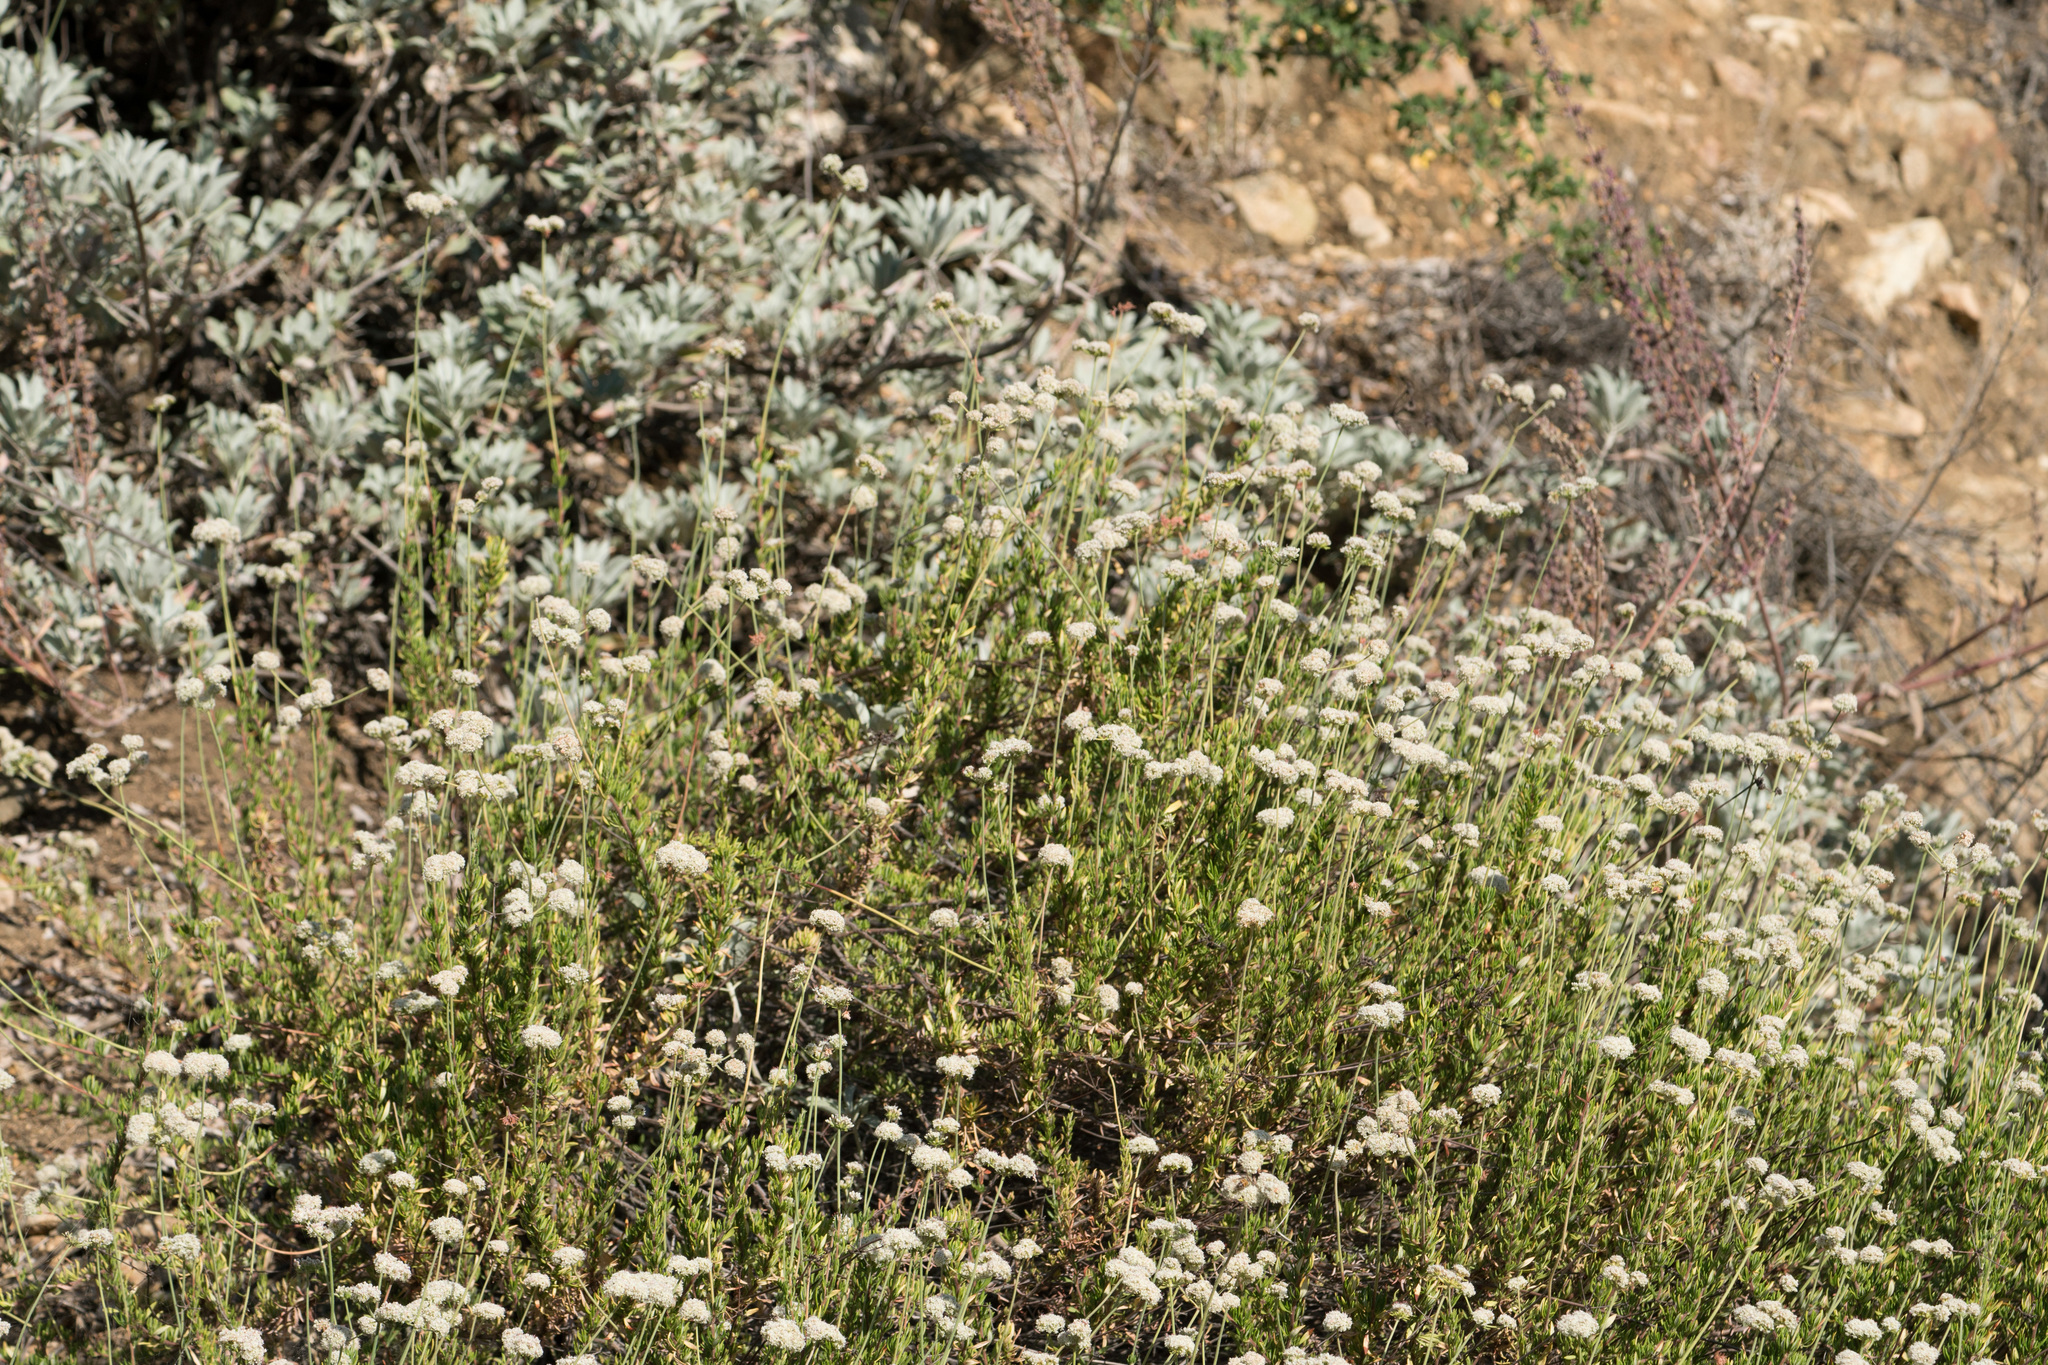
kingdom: Plantae
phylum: Tracheophyta
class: Magnoliopsida
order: Caryophyllales
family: Polygonaceae
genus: Eriogonum
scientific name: Eriogonum fasciculatum
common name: California wild buckwheat
